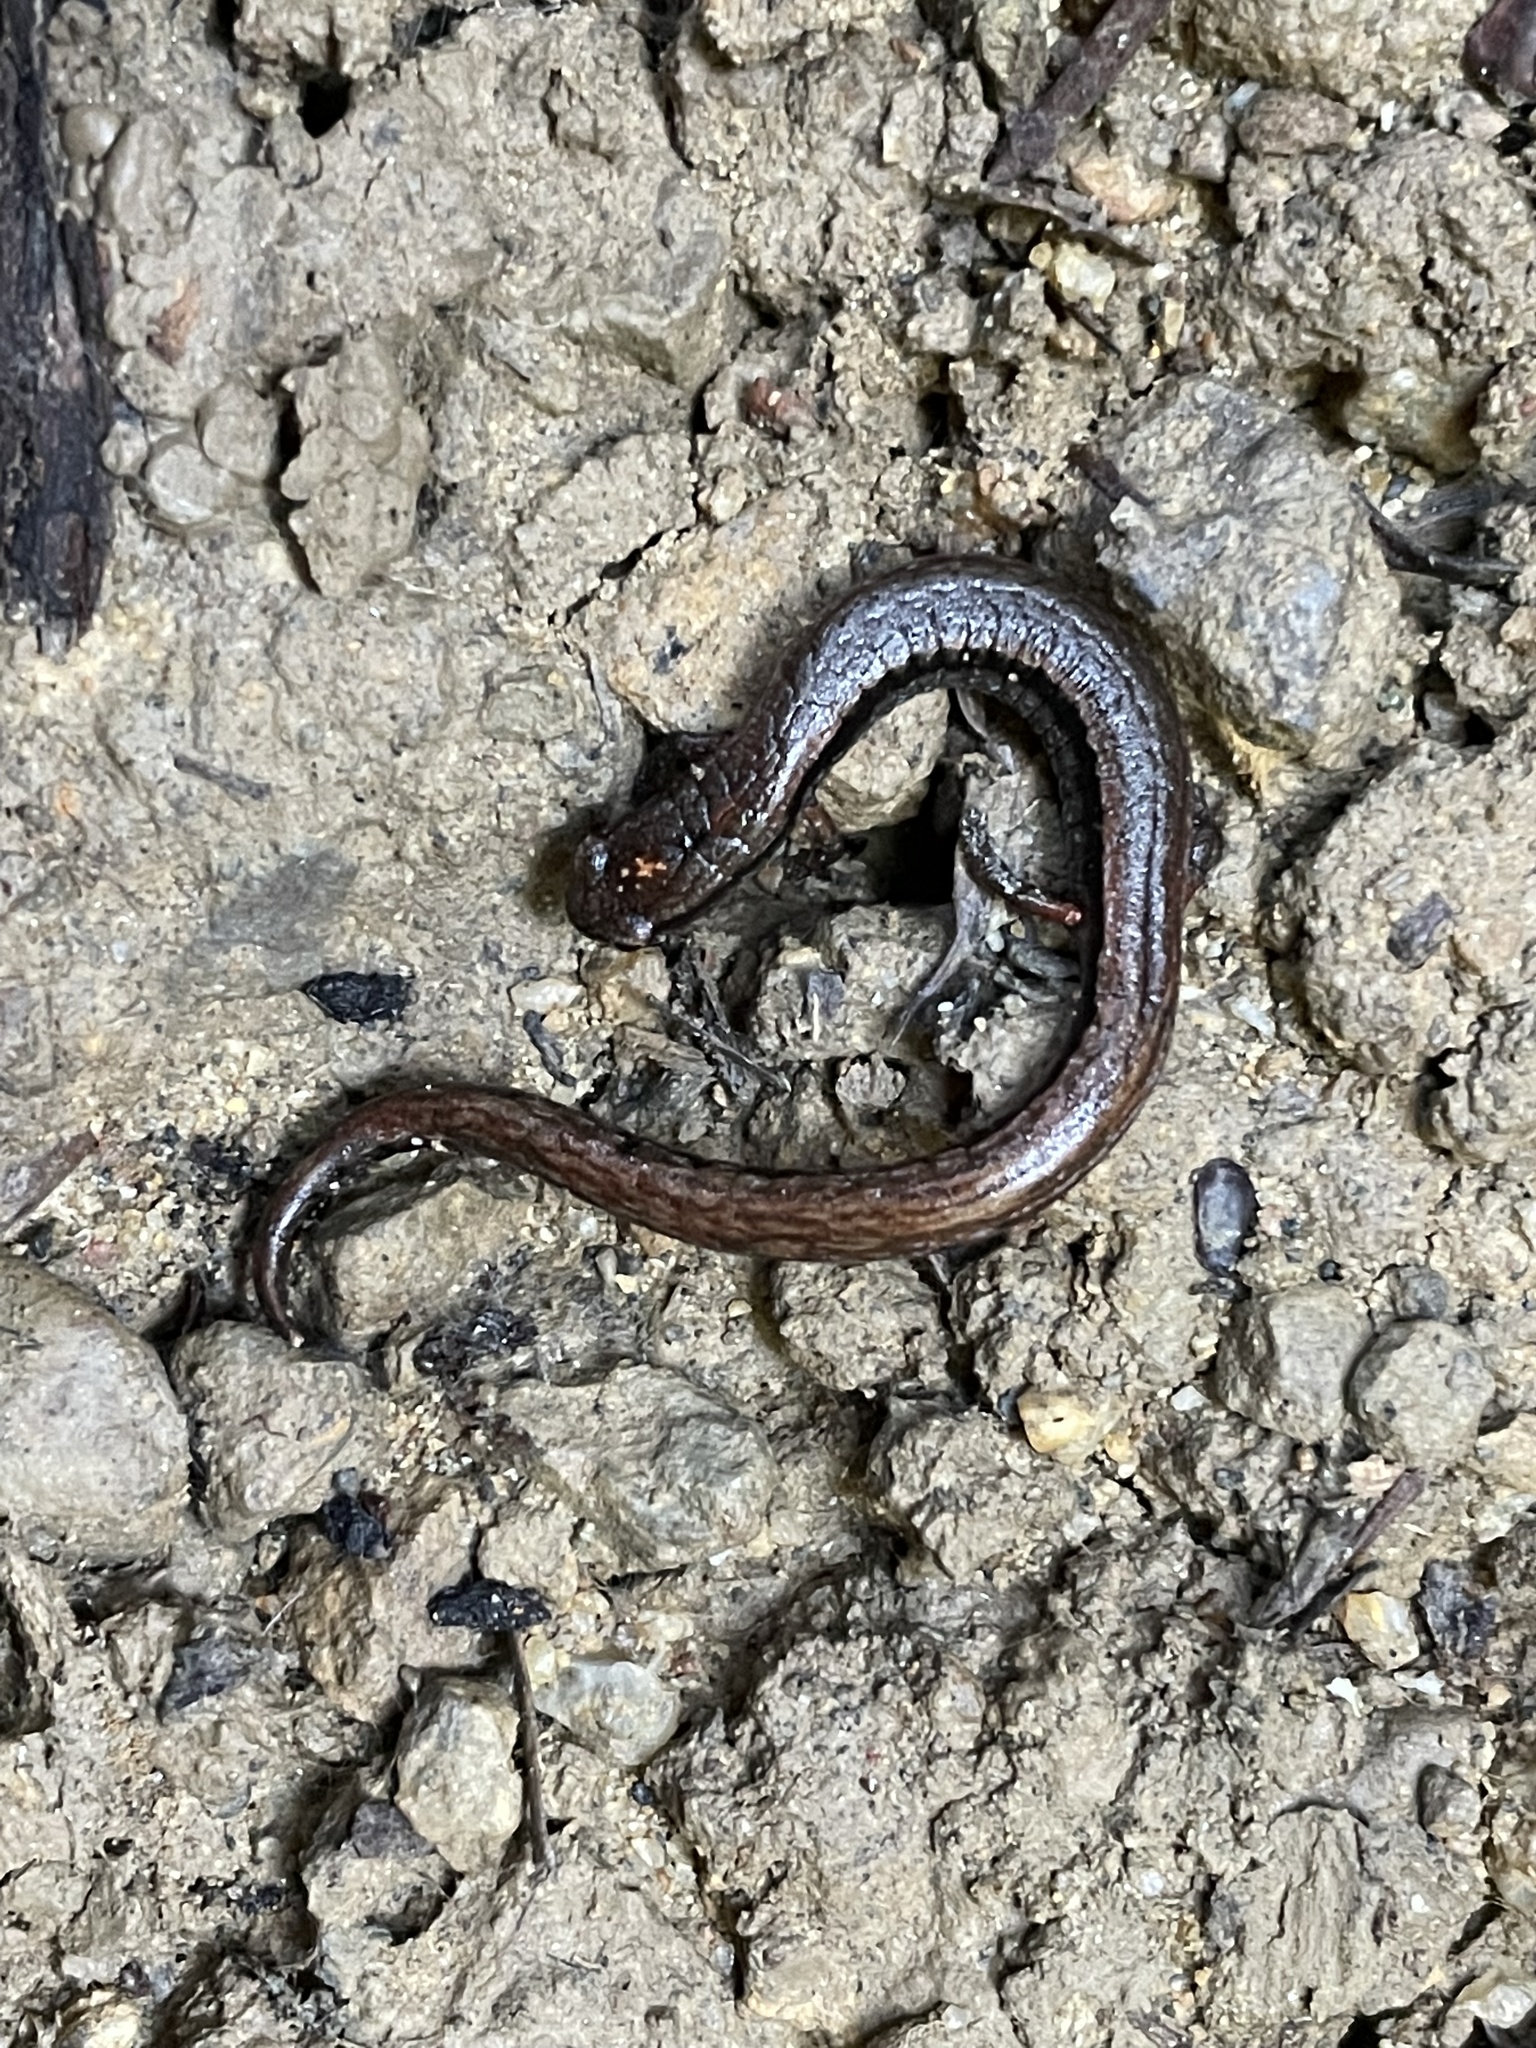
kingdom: Animalia
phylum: Chordata
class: Amphibia
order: Caudata
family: Plethodontidae
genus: Batrachoseps
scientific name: Batrachoseps attenuatus
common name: California slender salamander
